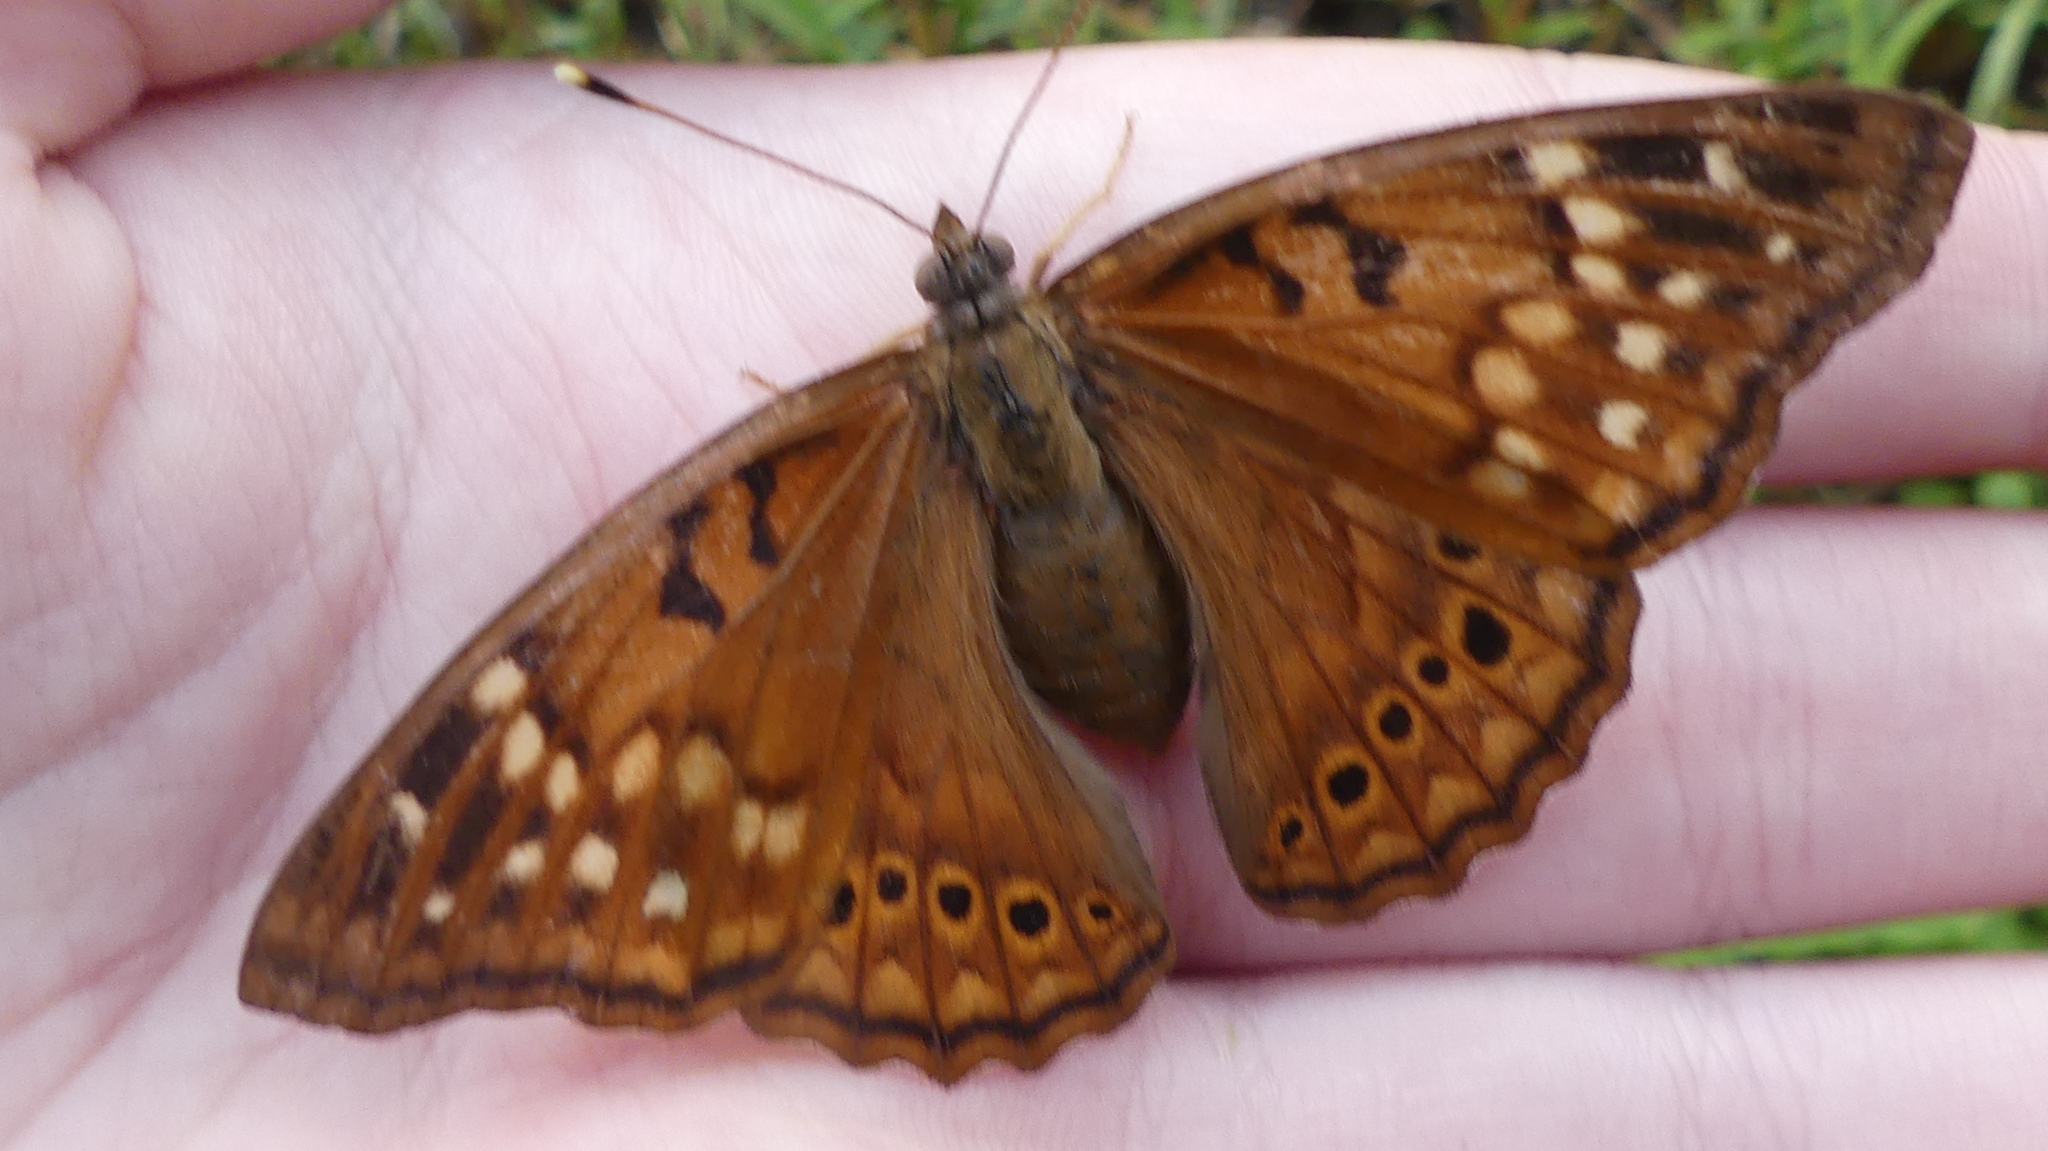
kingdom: Animalia
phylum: Arthropoda
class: Insecta
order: Lepidoptera
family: Nymphalidae
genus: Asterocampa
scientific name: Asterocampa clyton
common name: Tawny emperor
